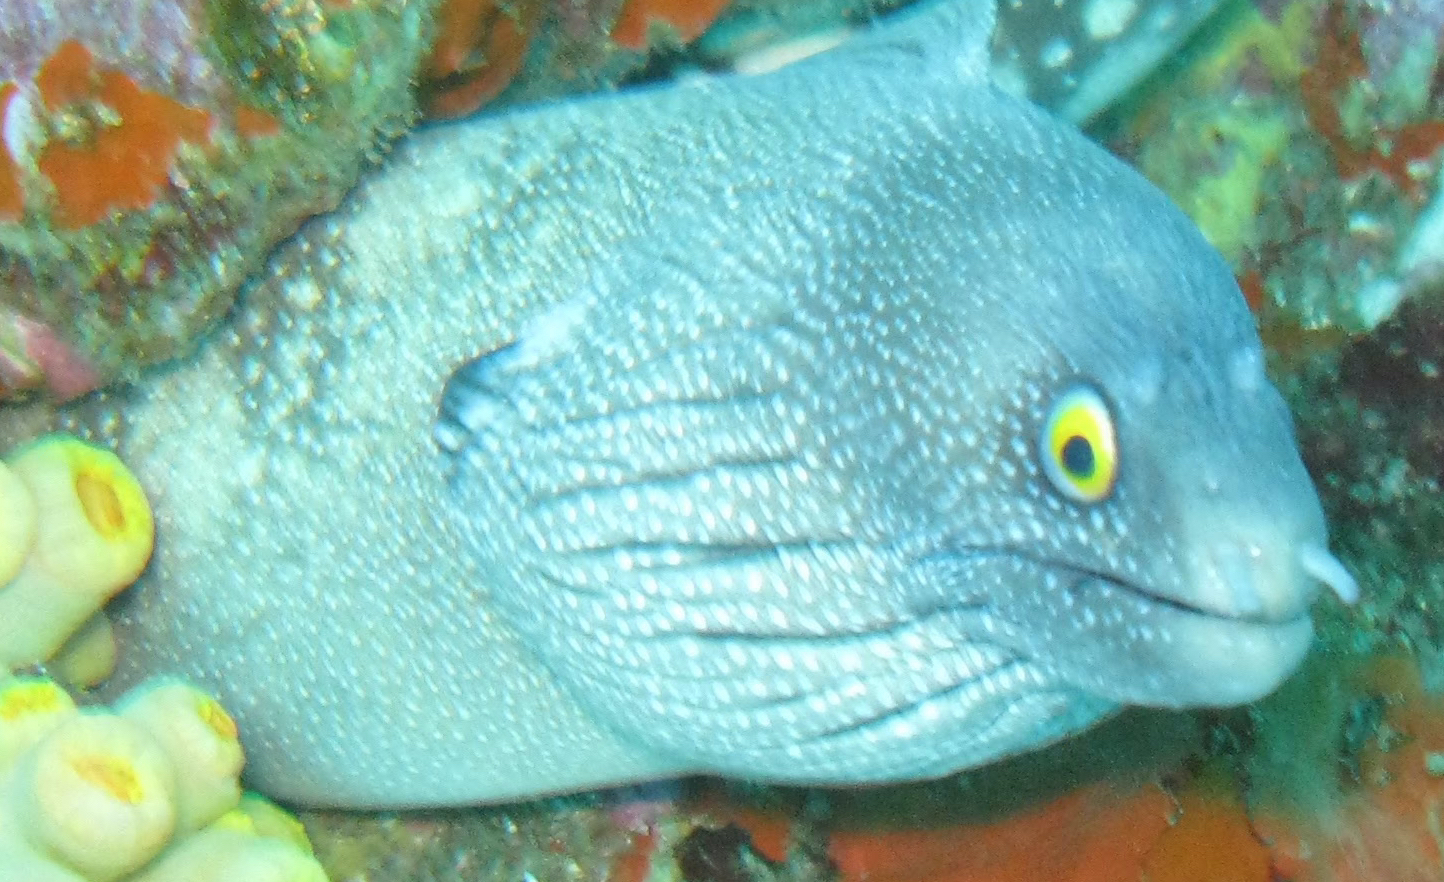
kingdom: Animalia
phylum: Chordata
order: Anguilliformes
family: Muraenidae
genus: Muraena
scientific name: Muraena argus
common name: Argus moray
